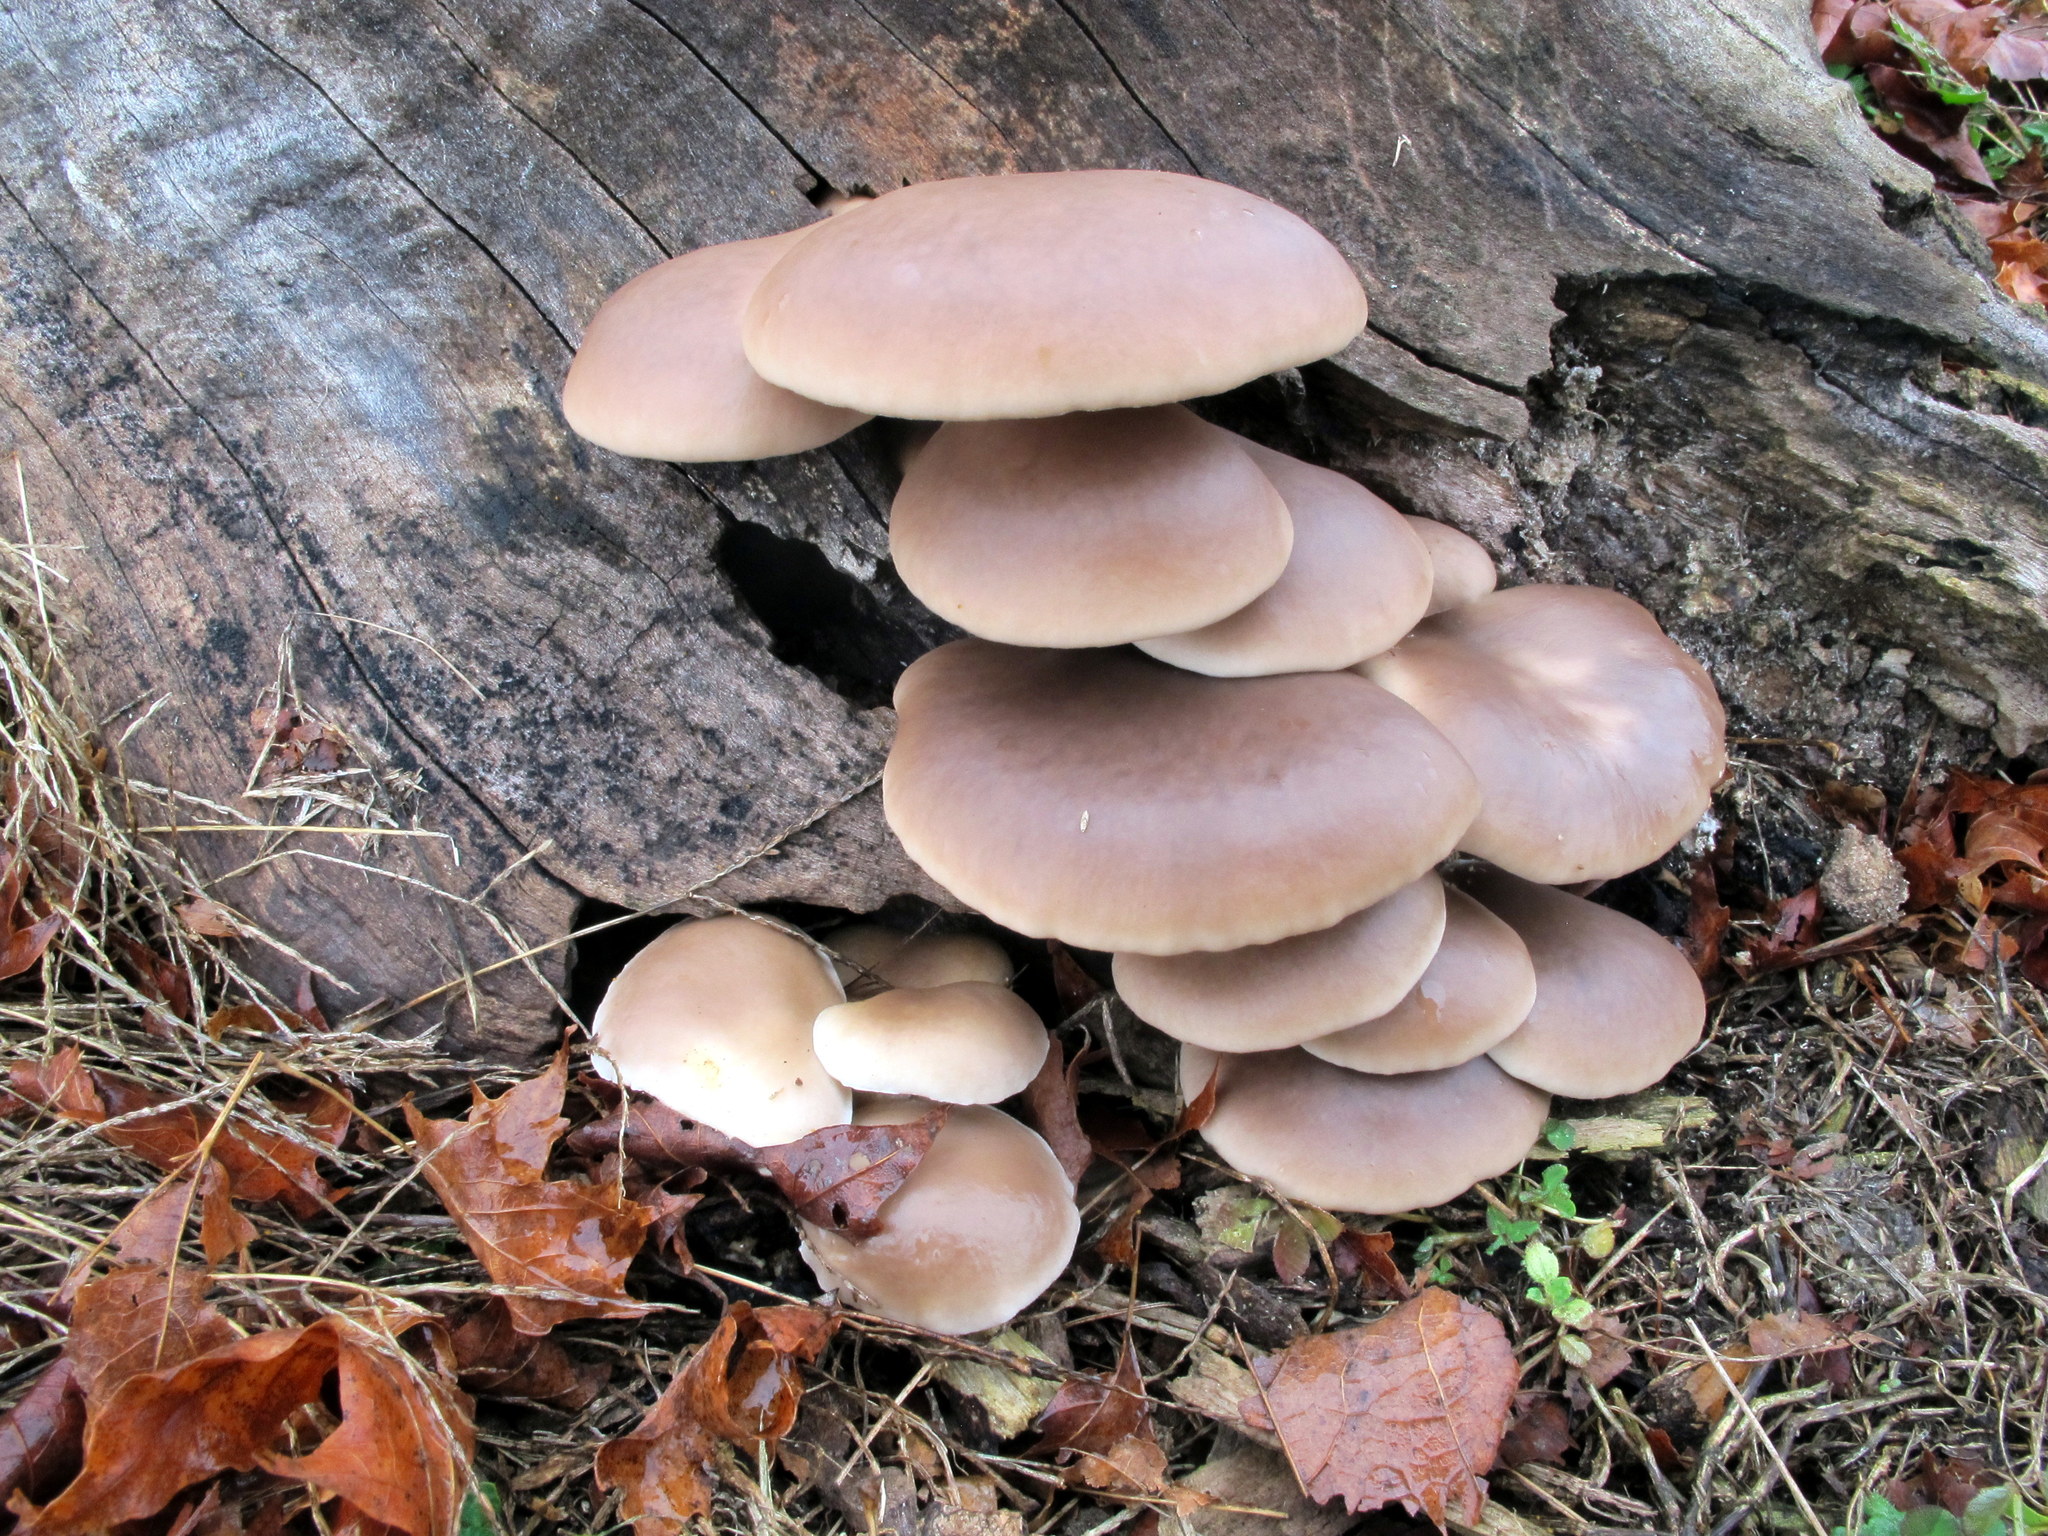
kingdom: Fungi
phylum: Basidiomycota
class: Agaricomycetes
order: Agaricales
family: Pleurotaceae
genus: Pleurotus
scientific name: Pleurotus ostreatus
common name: Oyster mushroom
